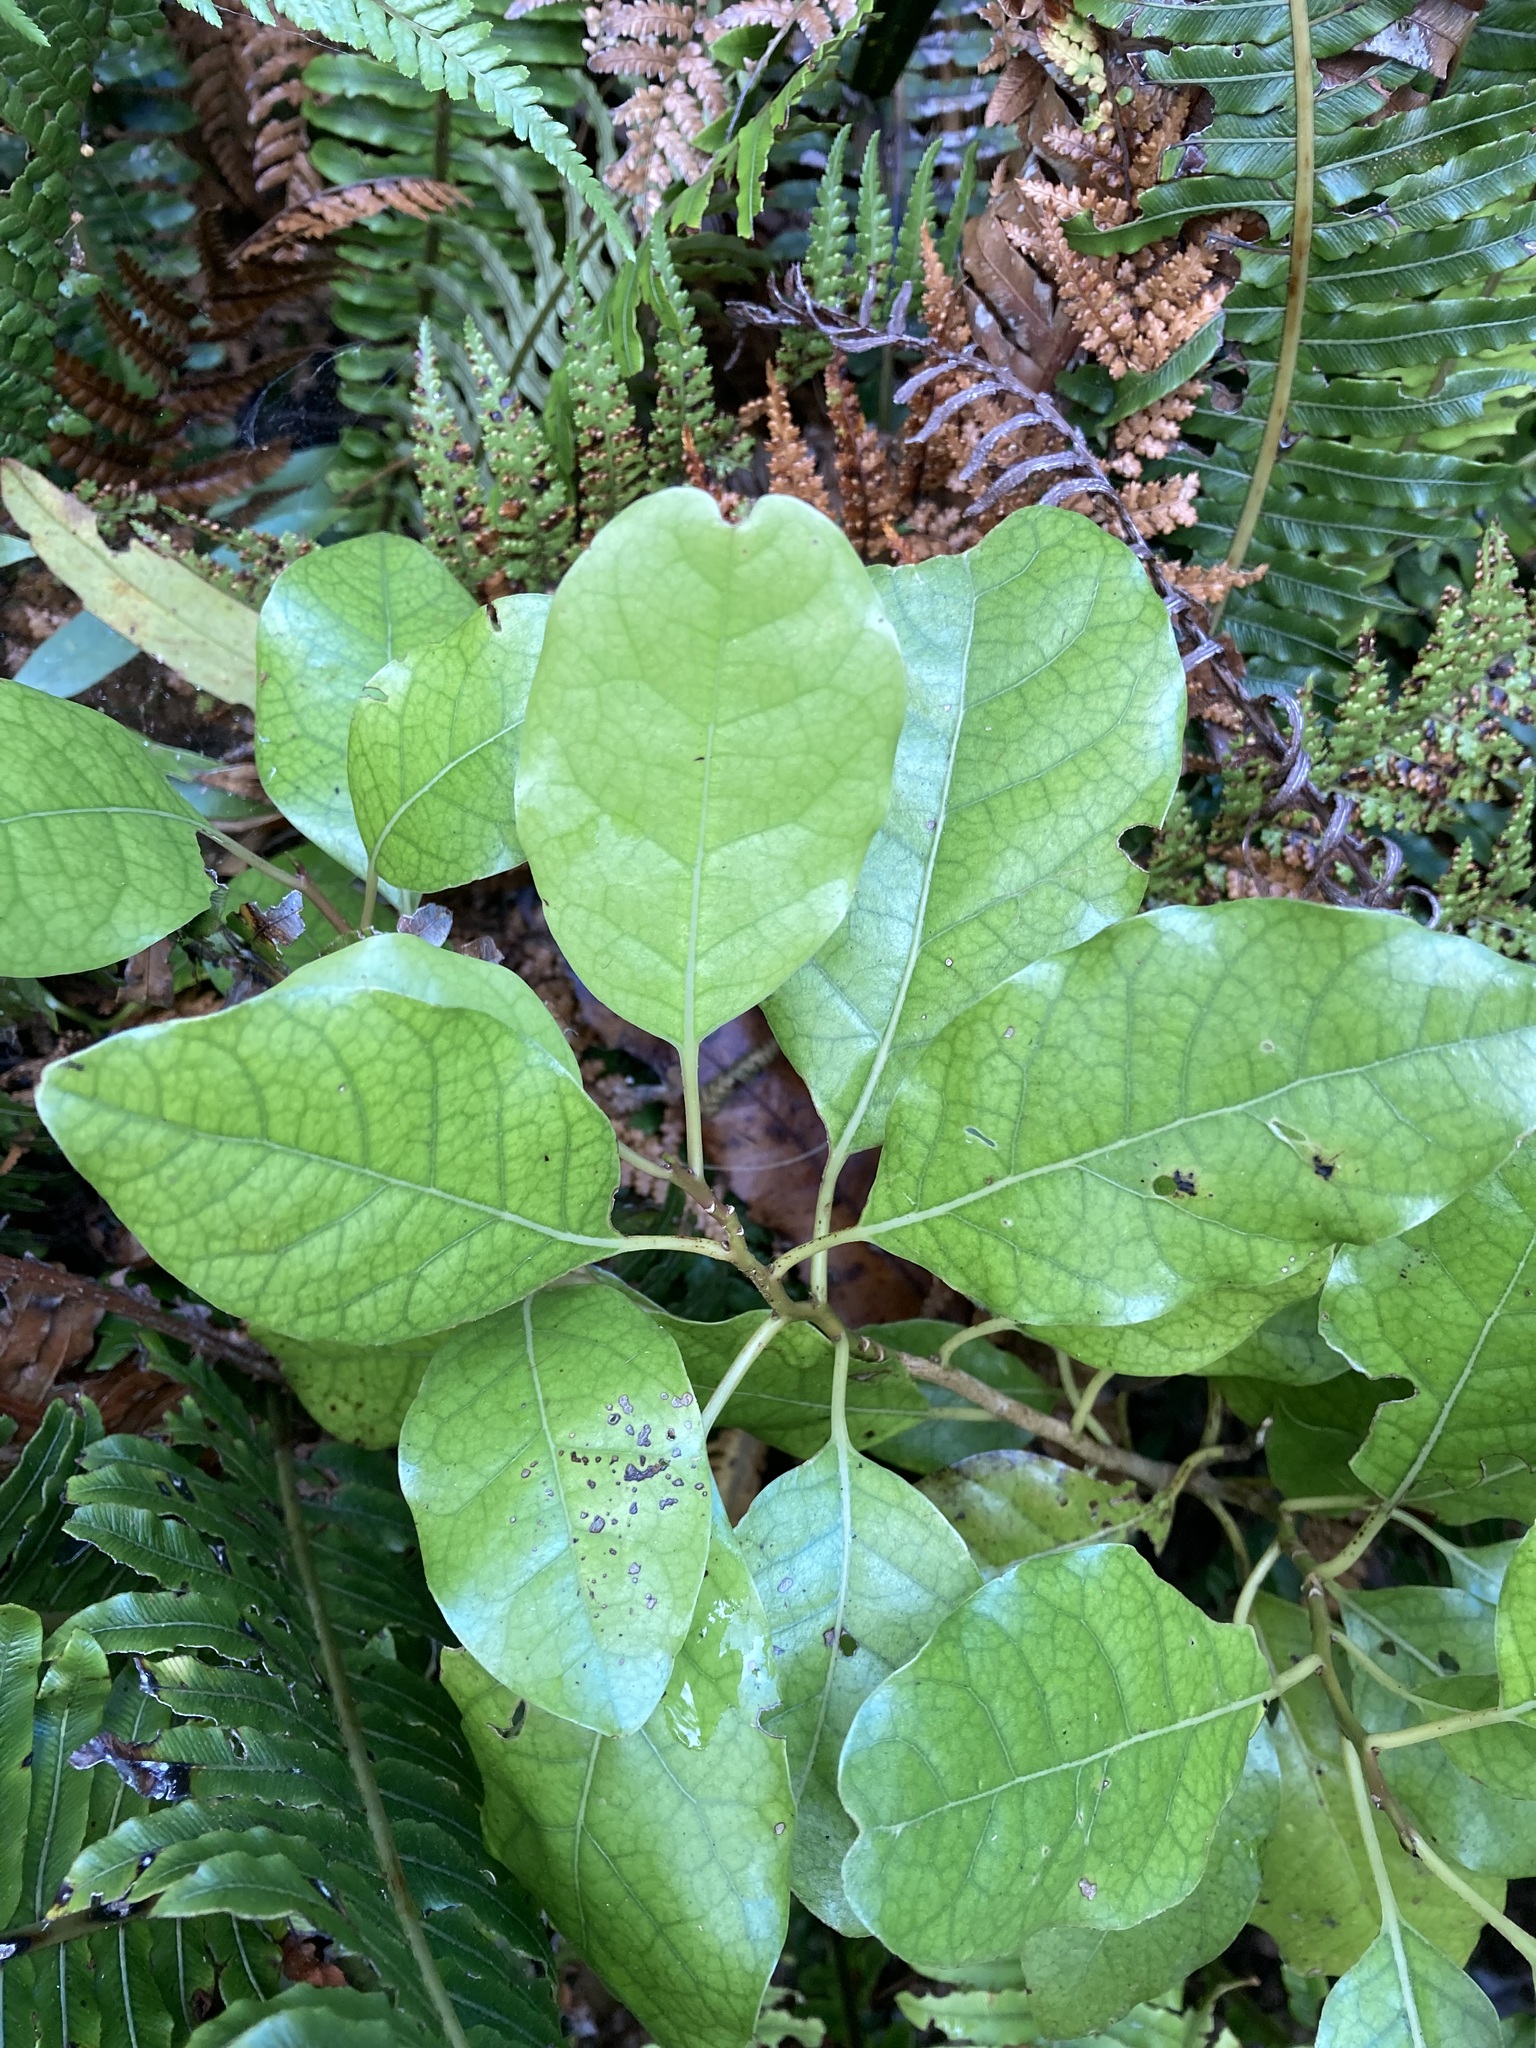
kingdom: Plantae
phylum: Tracheophyta
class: Magnoliopsida
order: Laurales
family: Lauraceae
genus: Litsea
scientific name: Litsea calicaris
